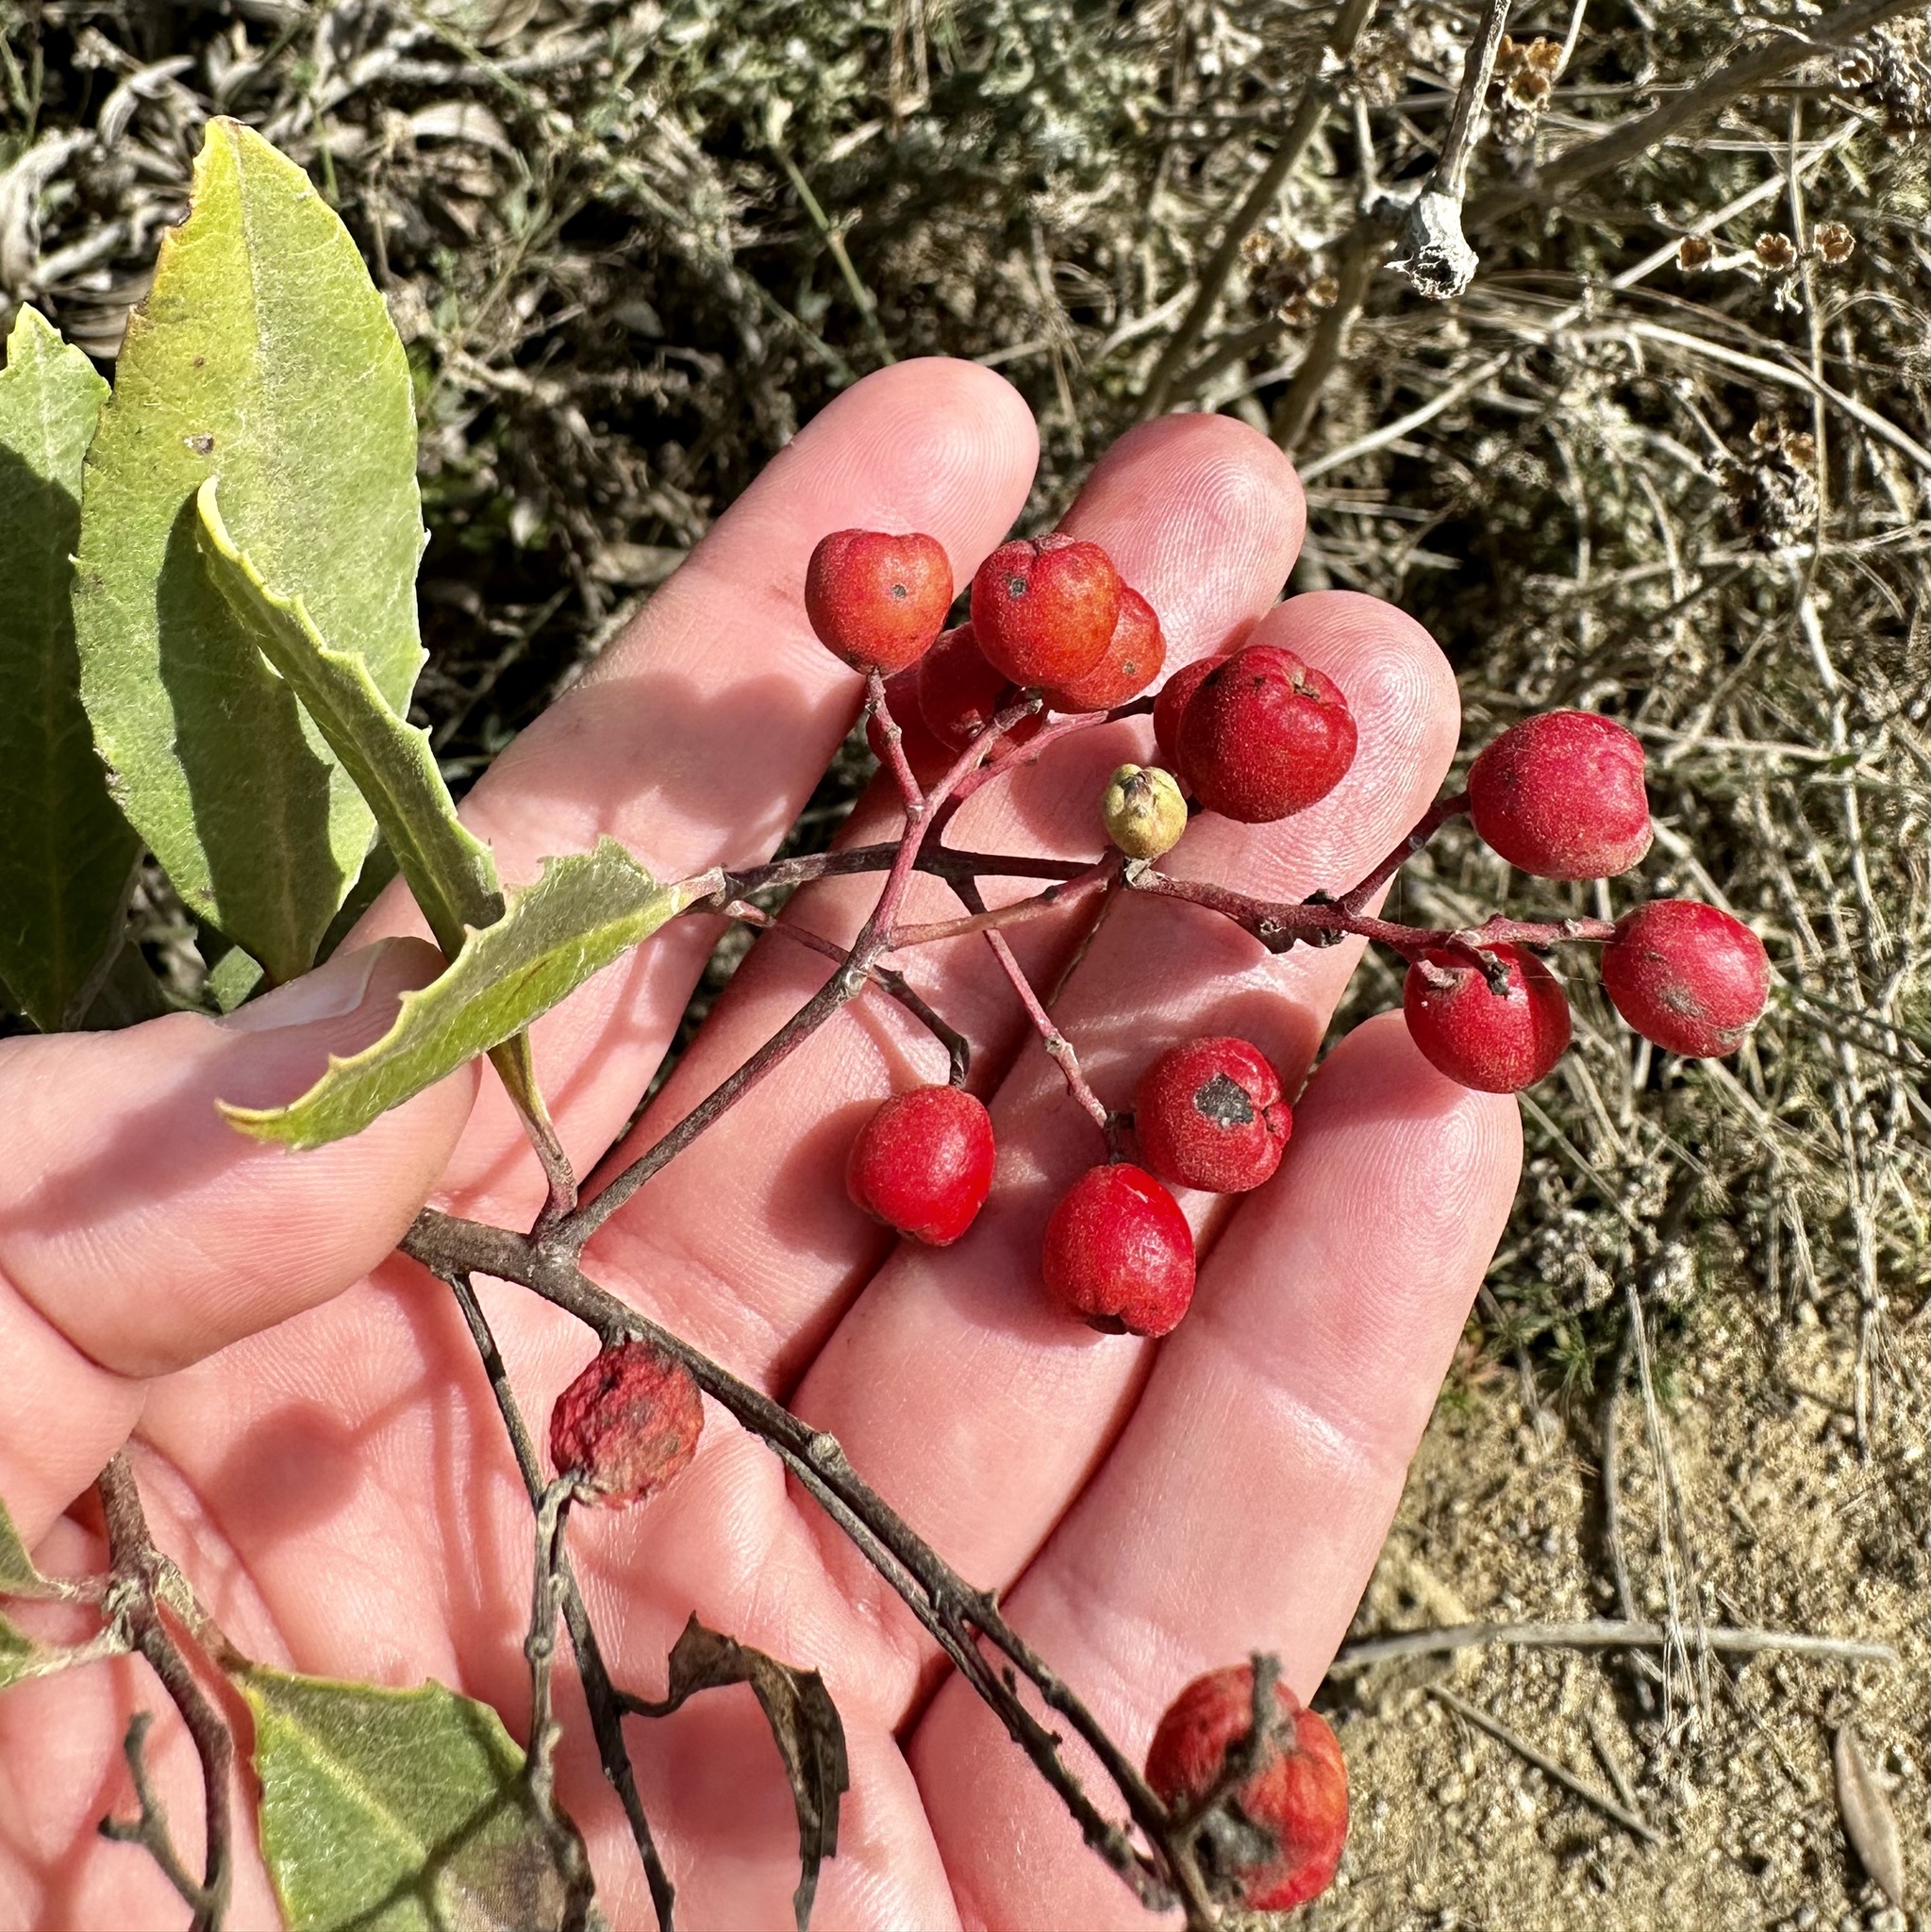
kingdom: Plantae
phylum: Tracheophyta
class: Magnoliopsida
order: Rosales
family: Rosaceae
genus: Heteromeles
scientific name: Heteromeles arbutifolia
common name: California-holly
